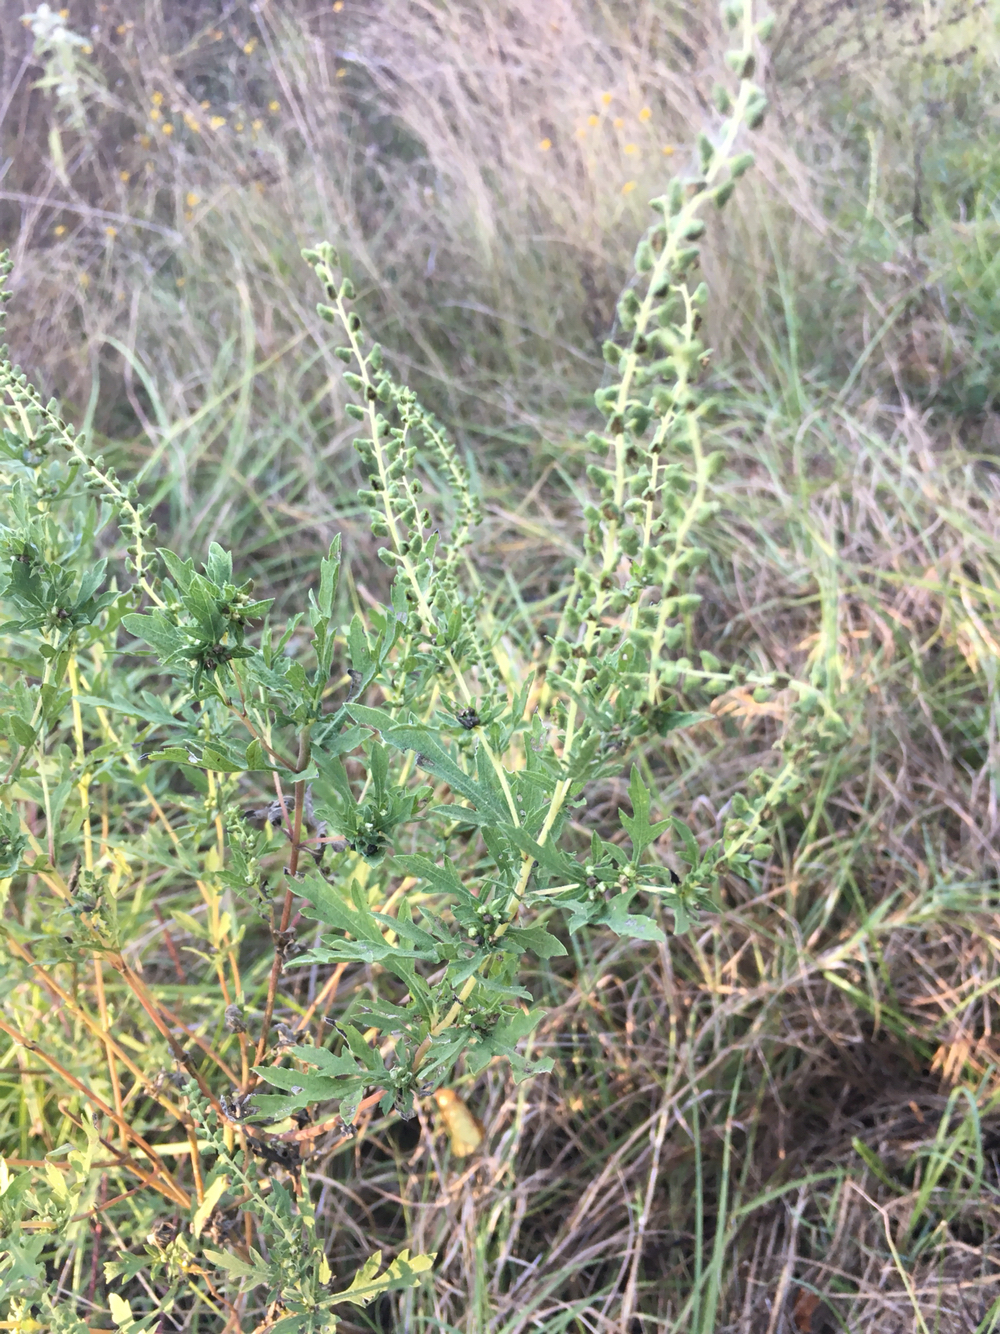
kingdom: Plantae
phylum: Tracheophyta
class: Magnoliopsida
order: Asterales
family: Asteraceae
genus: Ambrosia
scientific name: Ambrosia psilostachya
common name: Perennial ragweed
